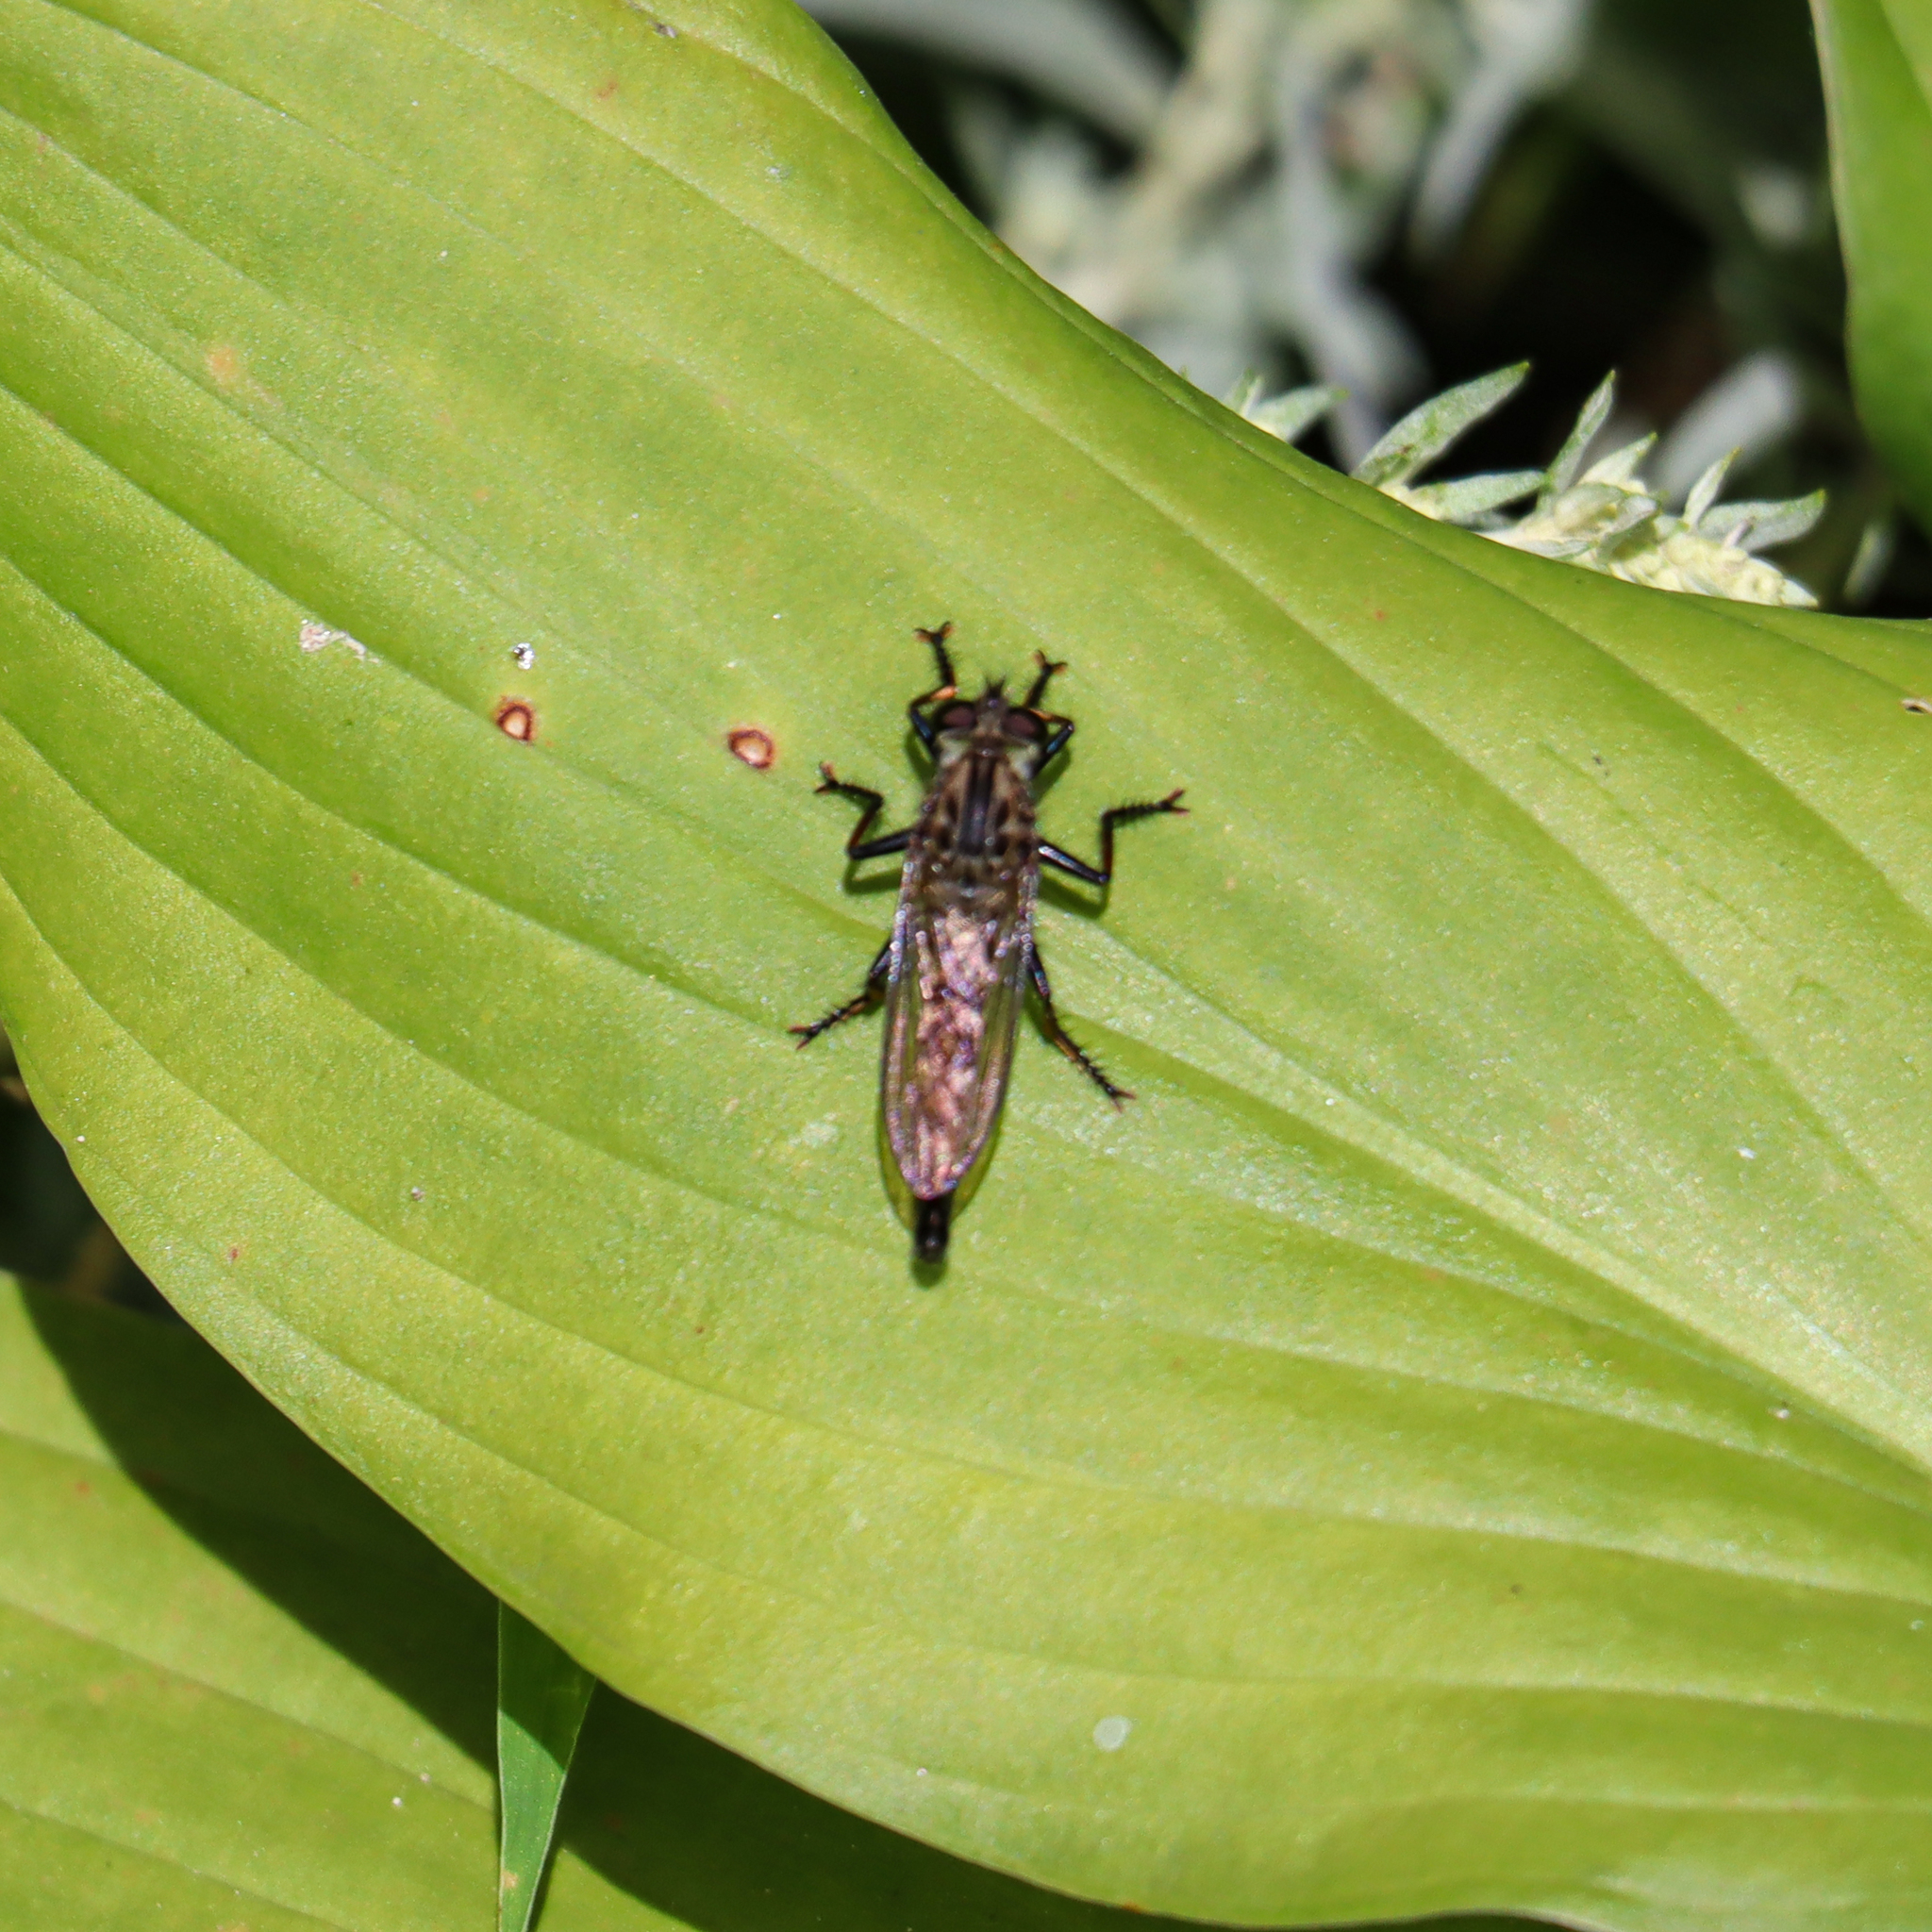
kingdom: Animalia
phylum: Arthropoda
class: Insecta
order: Diptera
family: Asilidae
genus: Efferia
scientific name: Efferia aestuans
